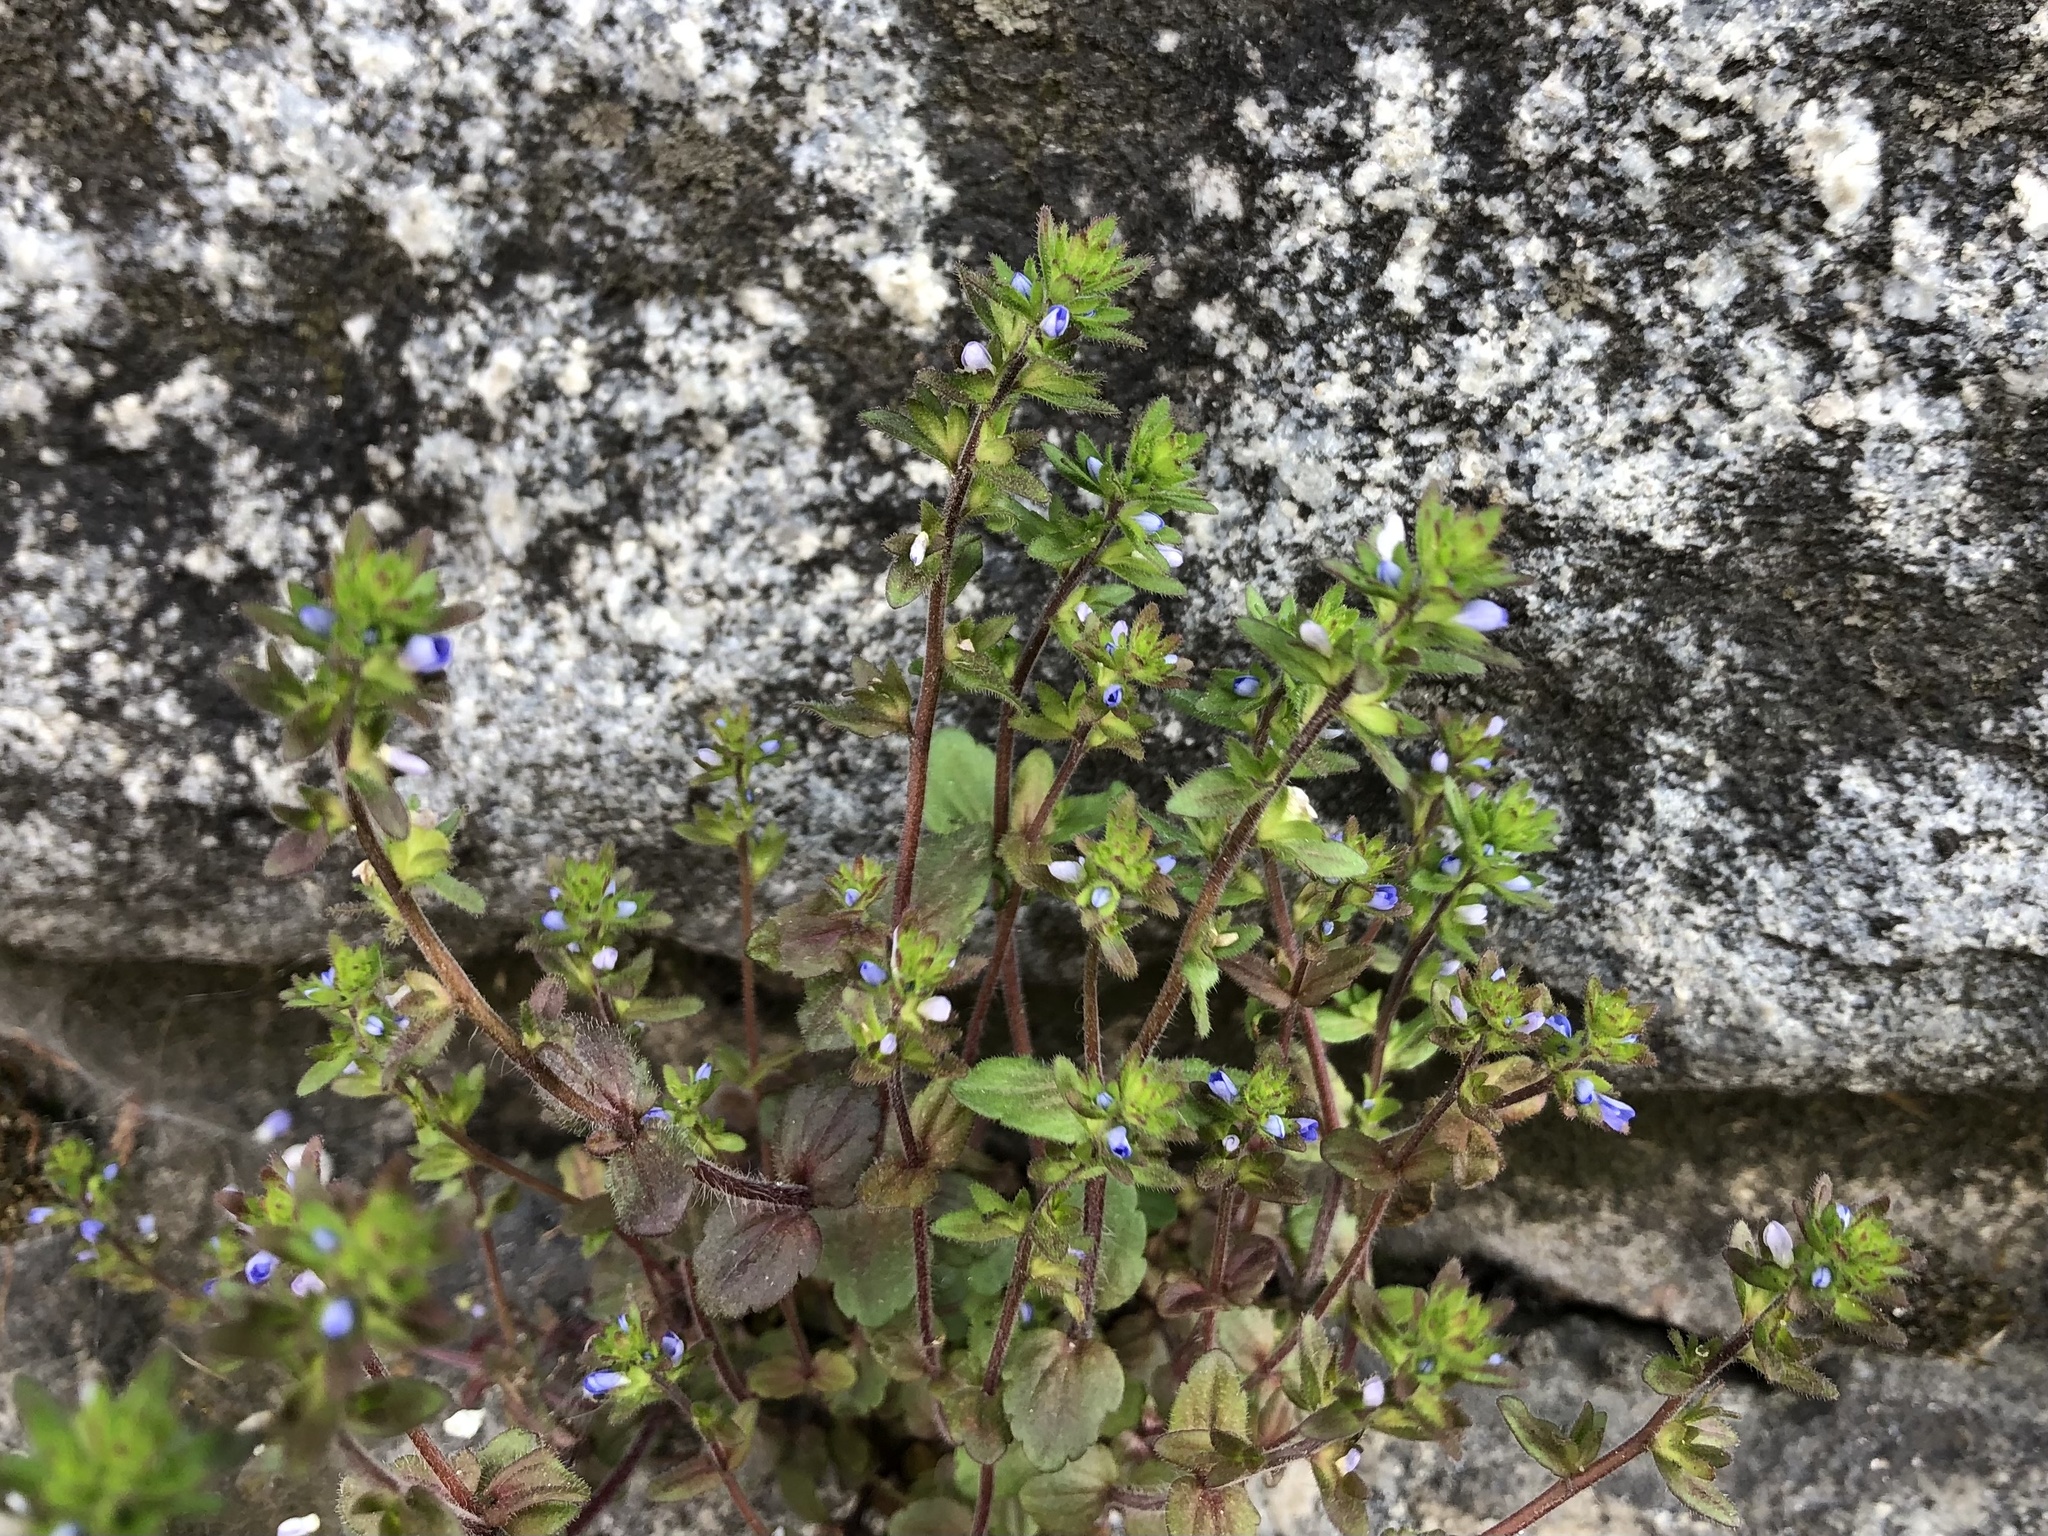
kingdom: Plantae
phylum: Tracheophyta
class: Magnoliopsida
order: Lamiales
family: Plantaginaceae
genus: Veronica
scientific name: Veronica arvensis
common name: Corn speedwell
